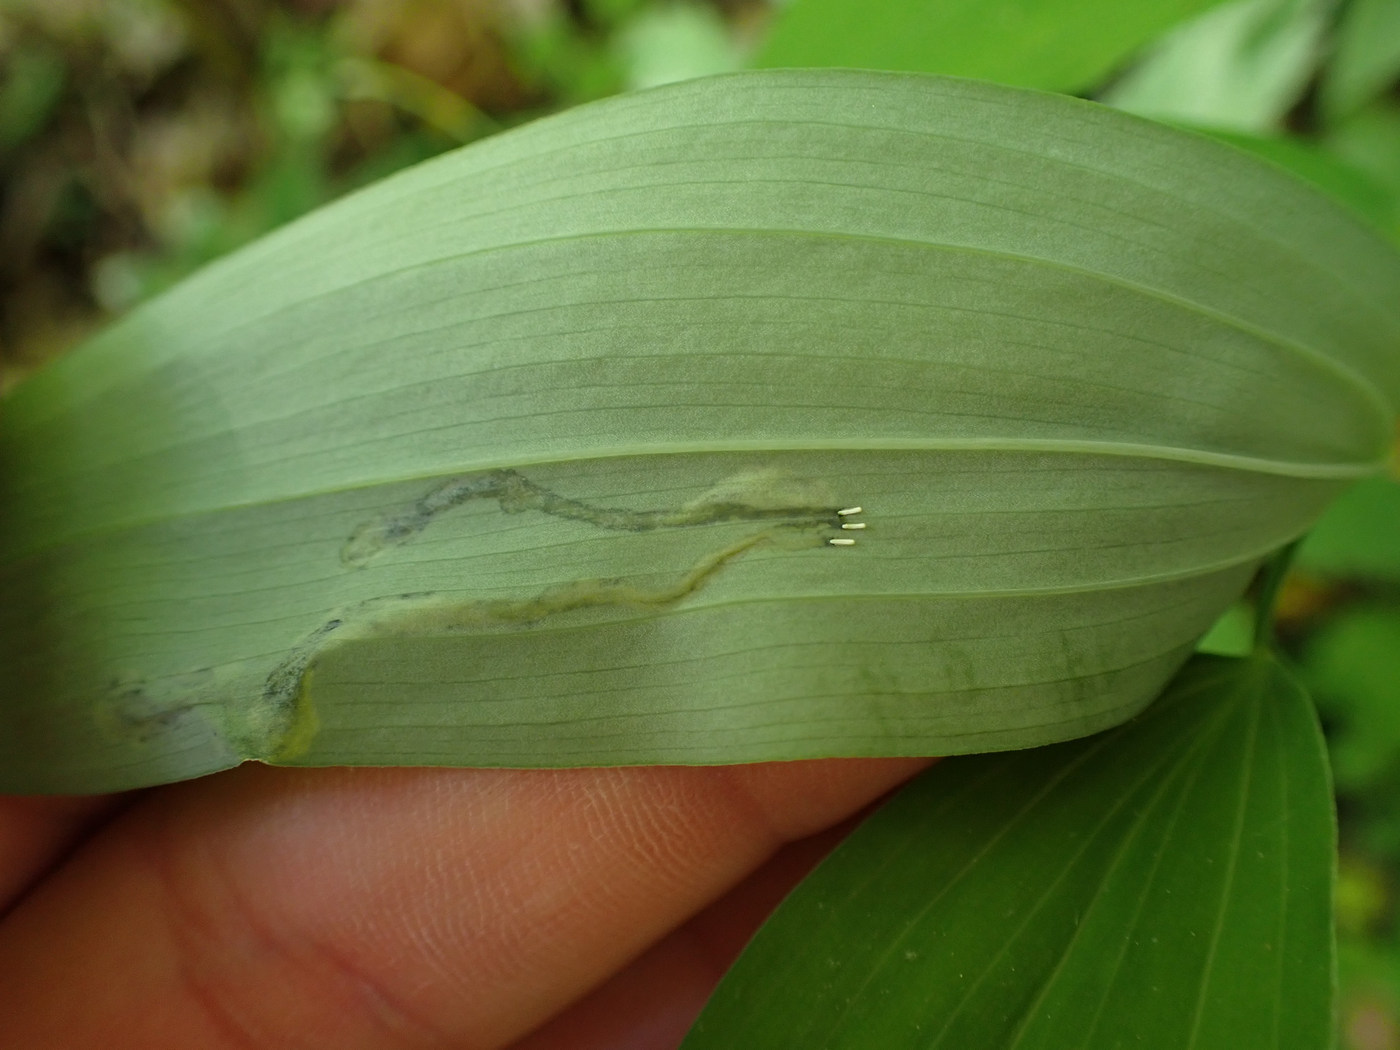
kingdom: Animalia
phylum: Arthropoda
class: Insecta
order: Diptera
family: Scathophagidae
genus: Leptopa
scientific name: Leptopa
